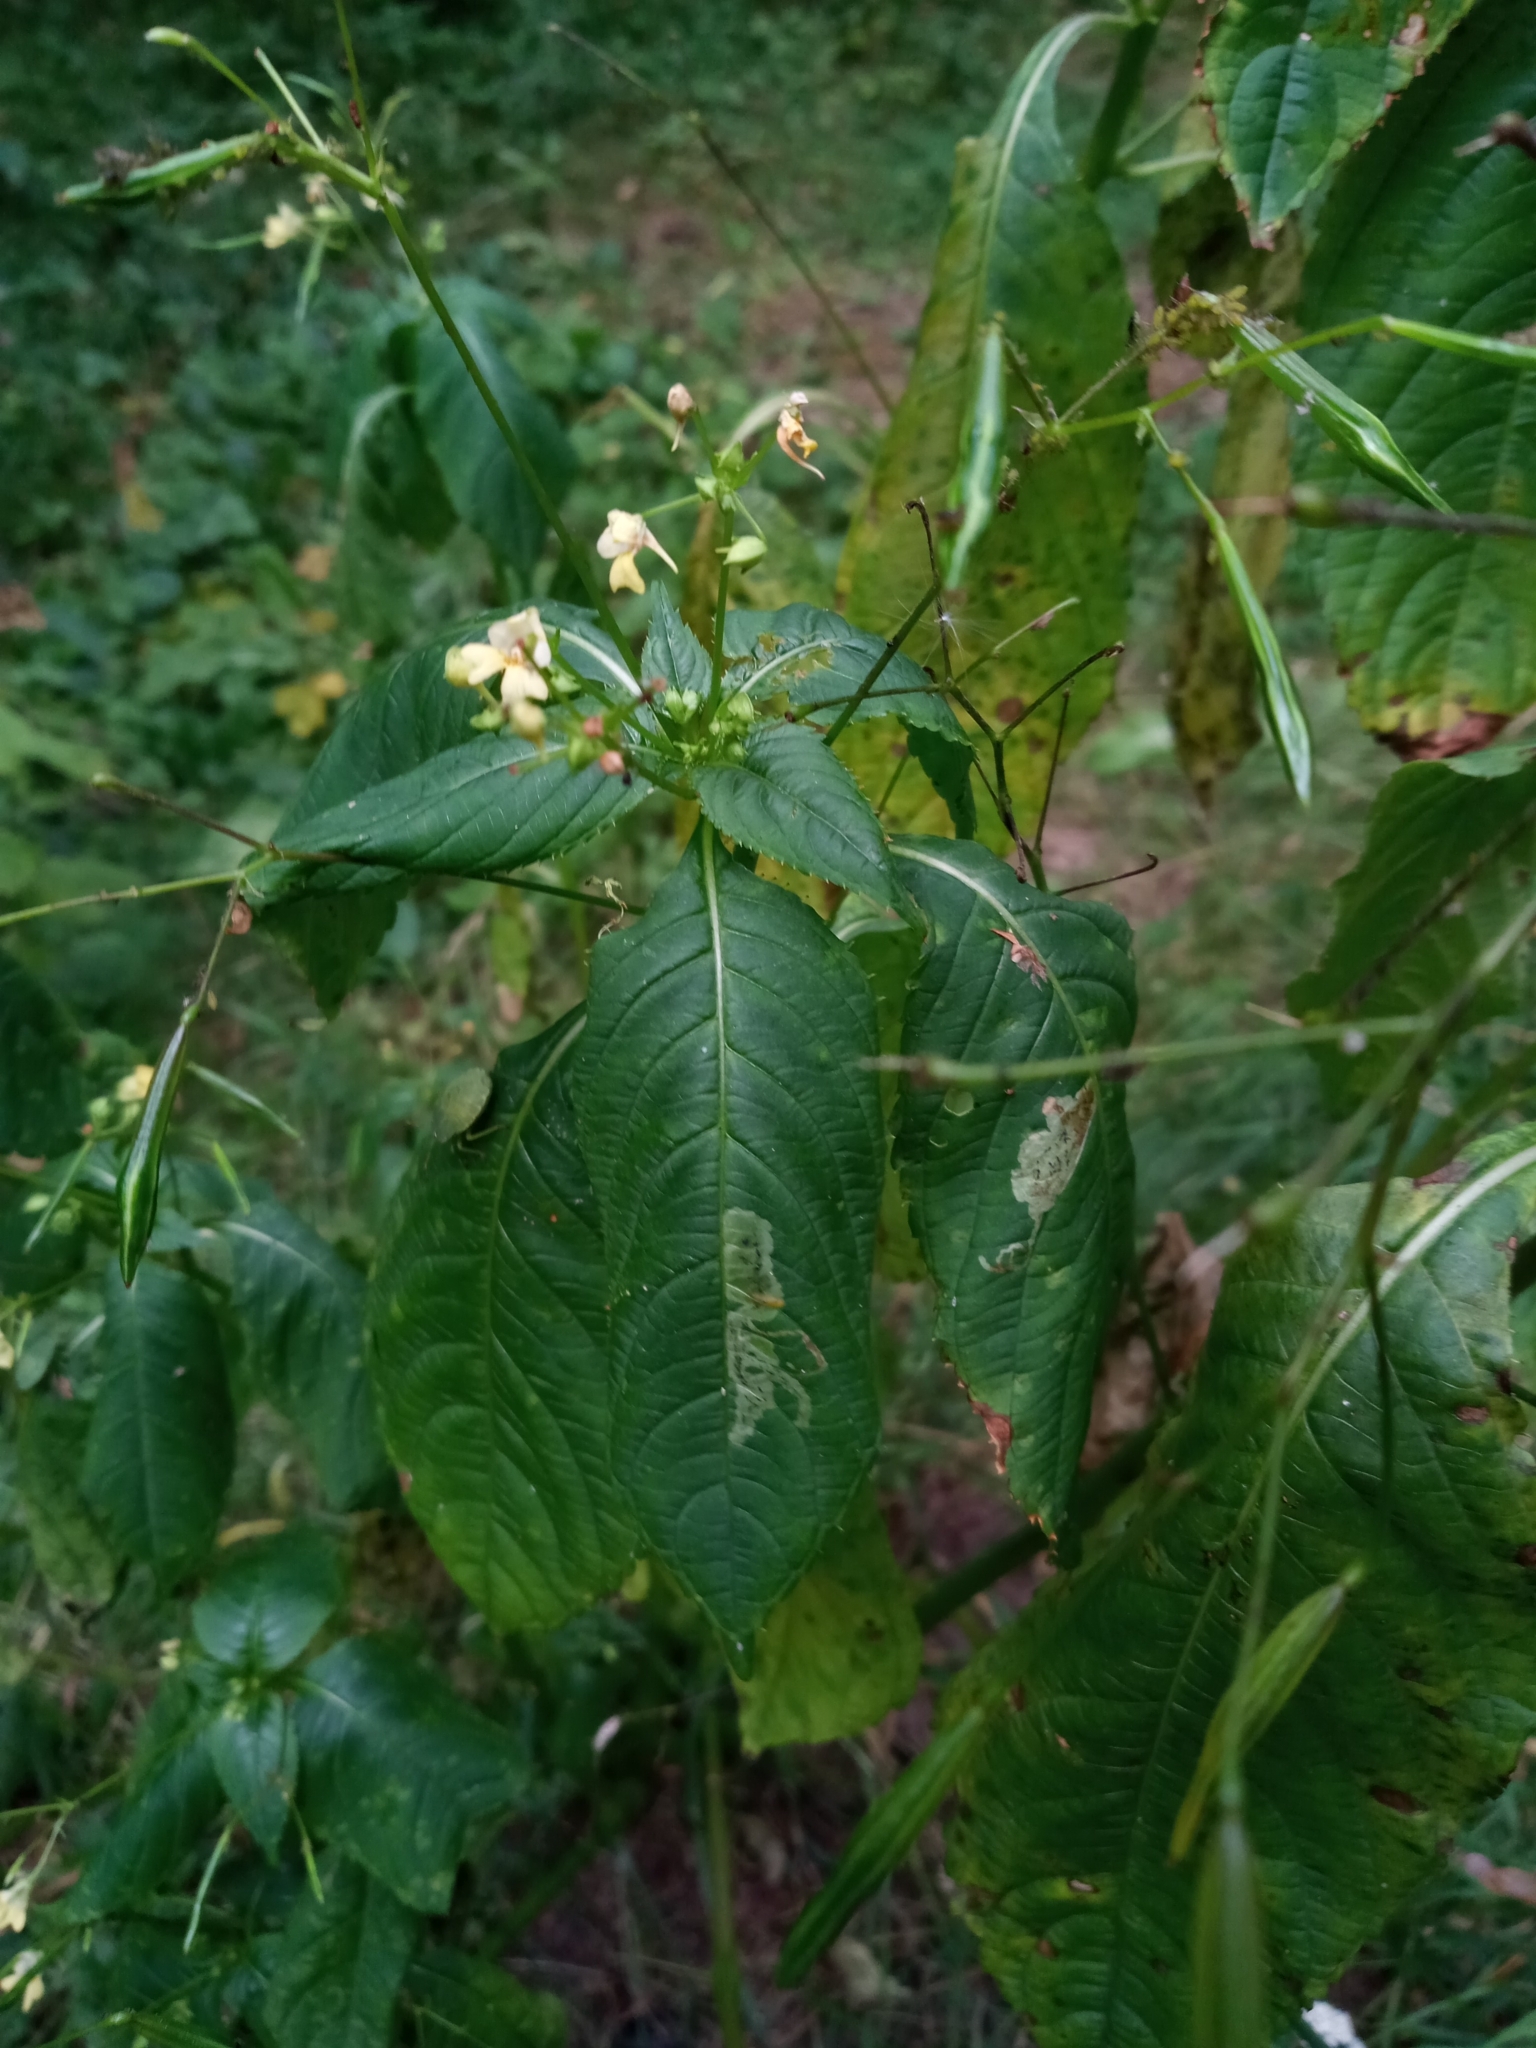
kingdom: Plantae
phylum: Tracheophyta
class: Magnoliopsida
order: Ericales
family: Balsaminaceae
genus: Impatiens
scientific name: Impatiens parviflora
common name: Small balsam
